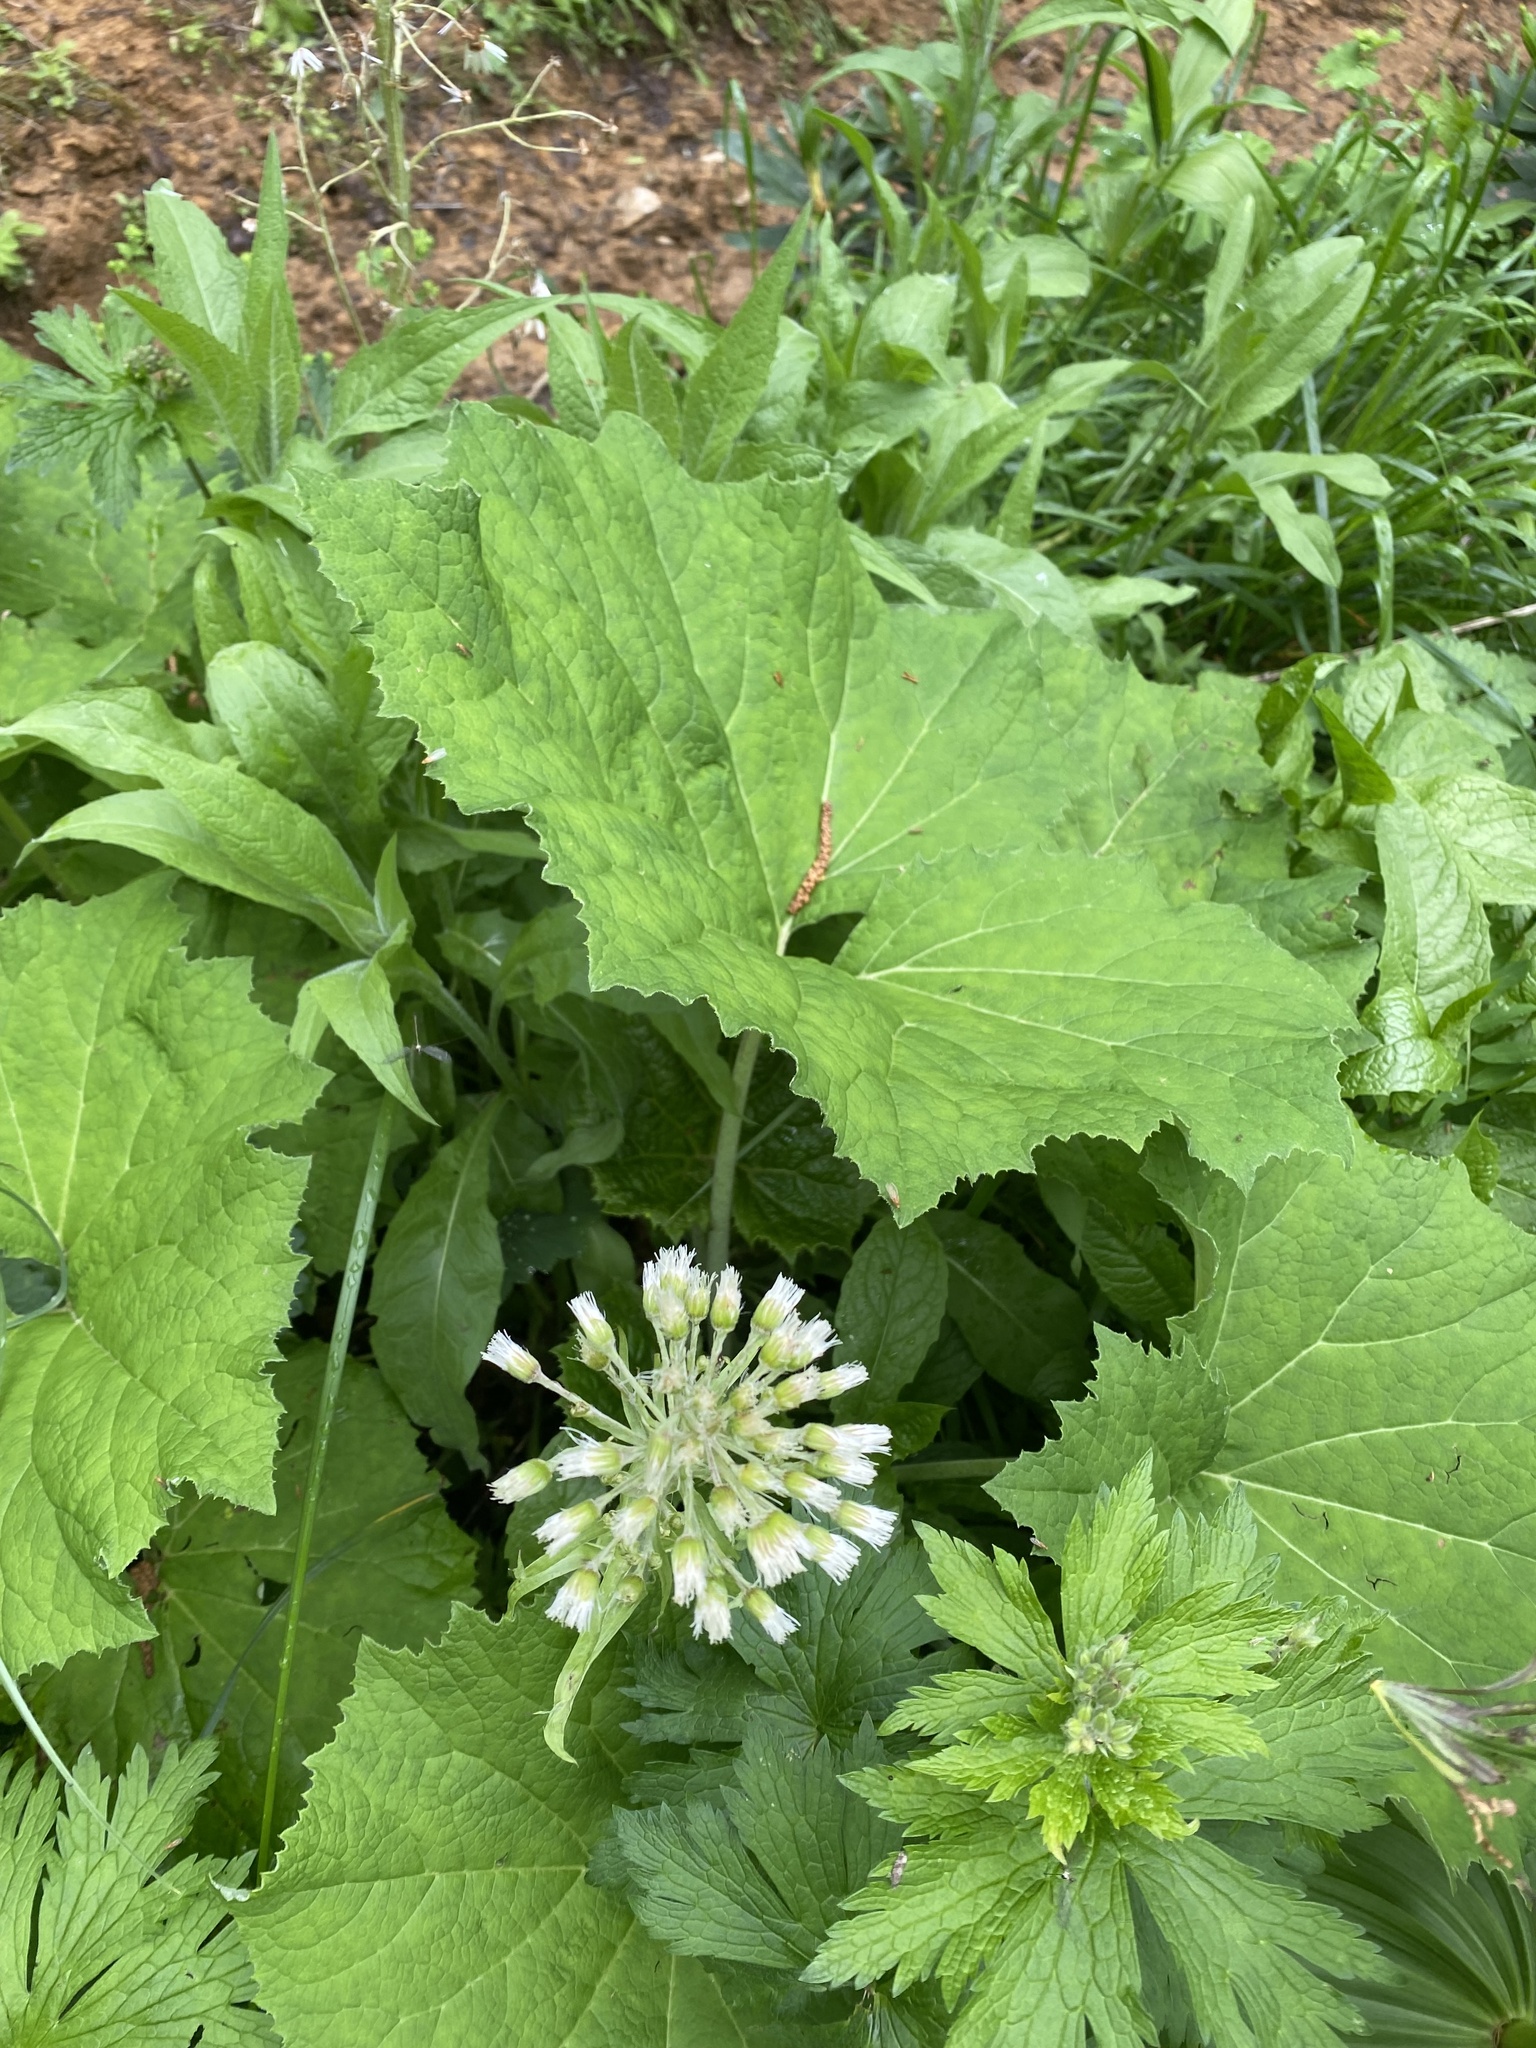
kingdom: Plantae
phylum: Tracheophyta
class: Magnoliopsida
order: Asterales
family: Asteraceae
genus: Petasites
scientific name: Petasites albus
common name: White butterbur
